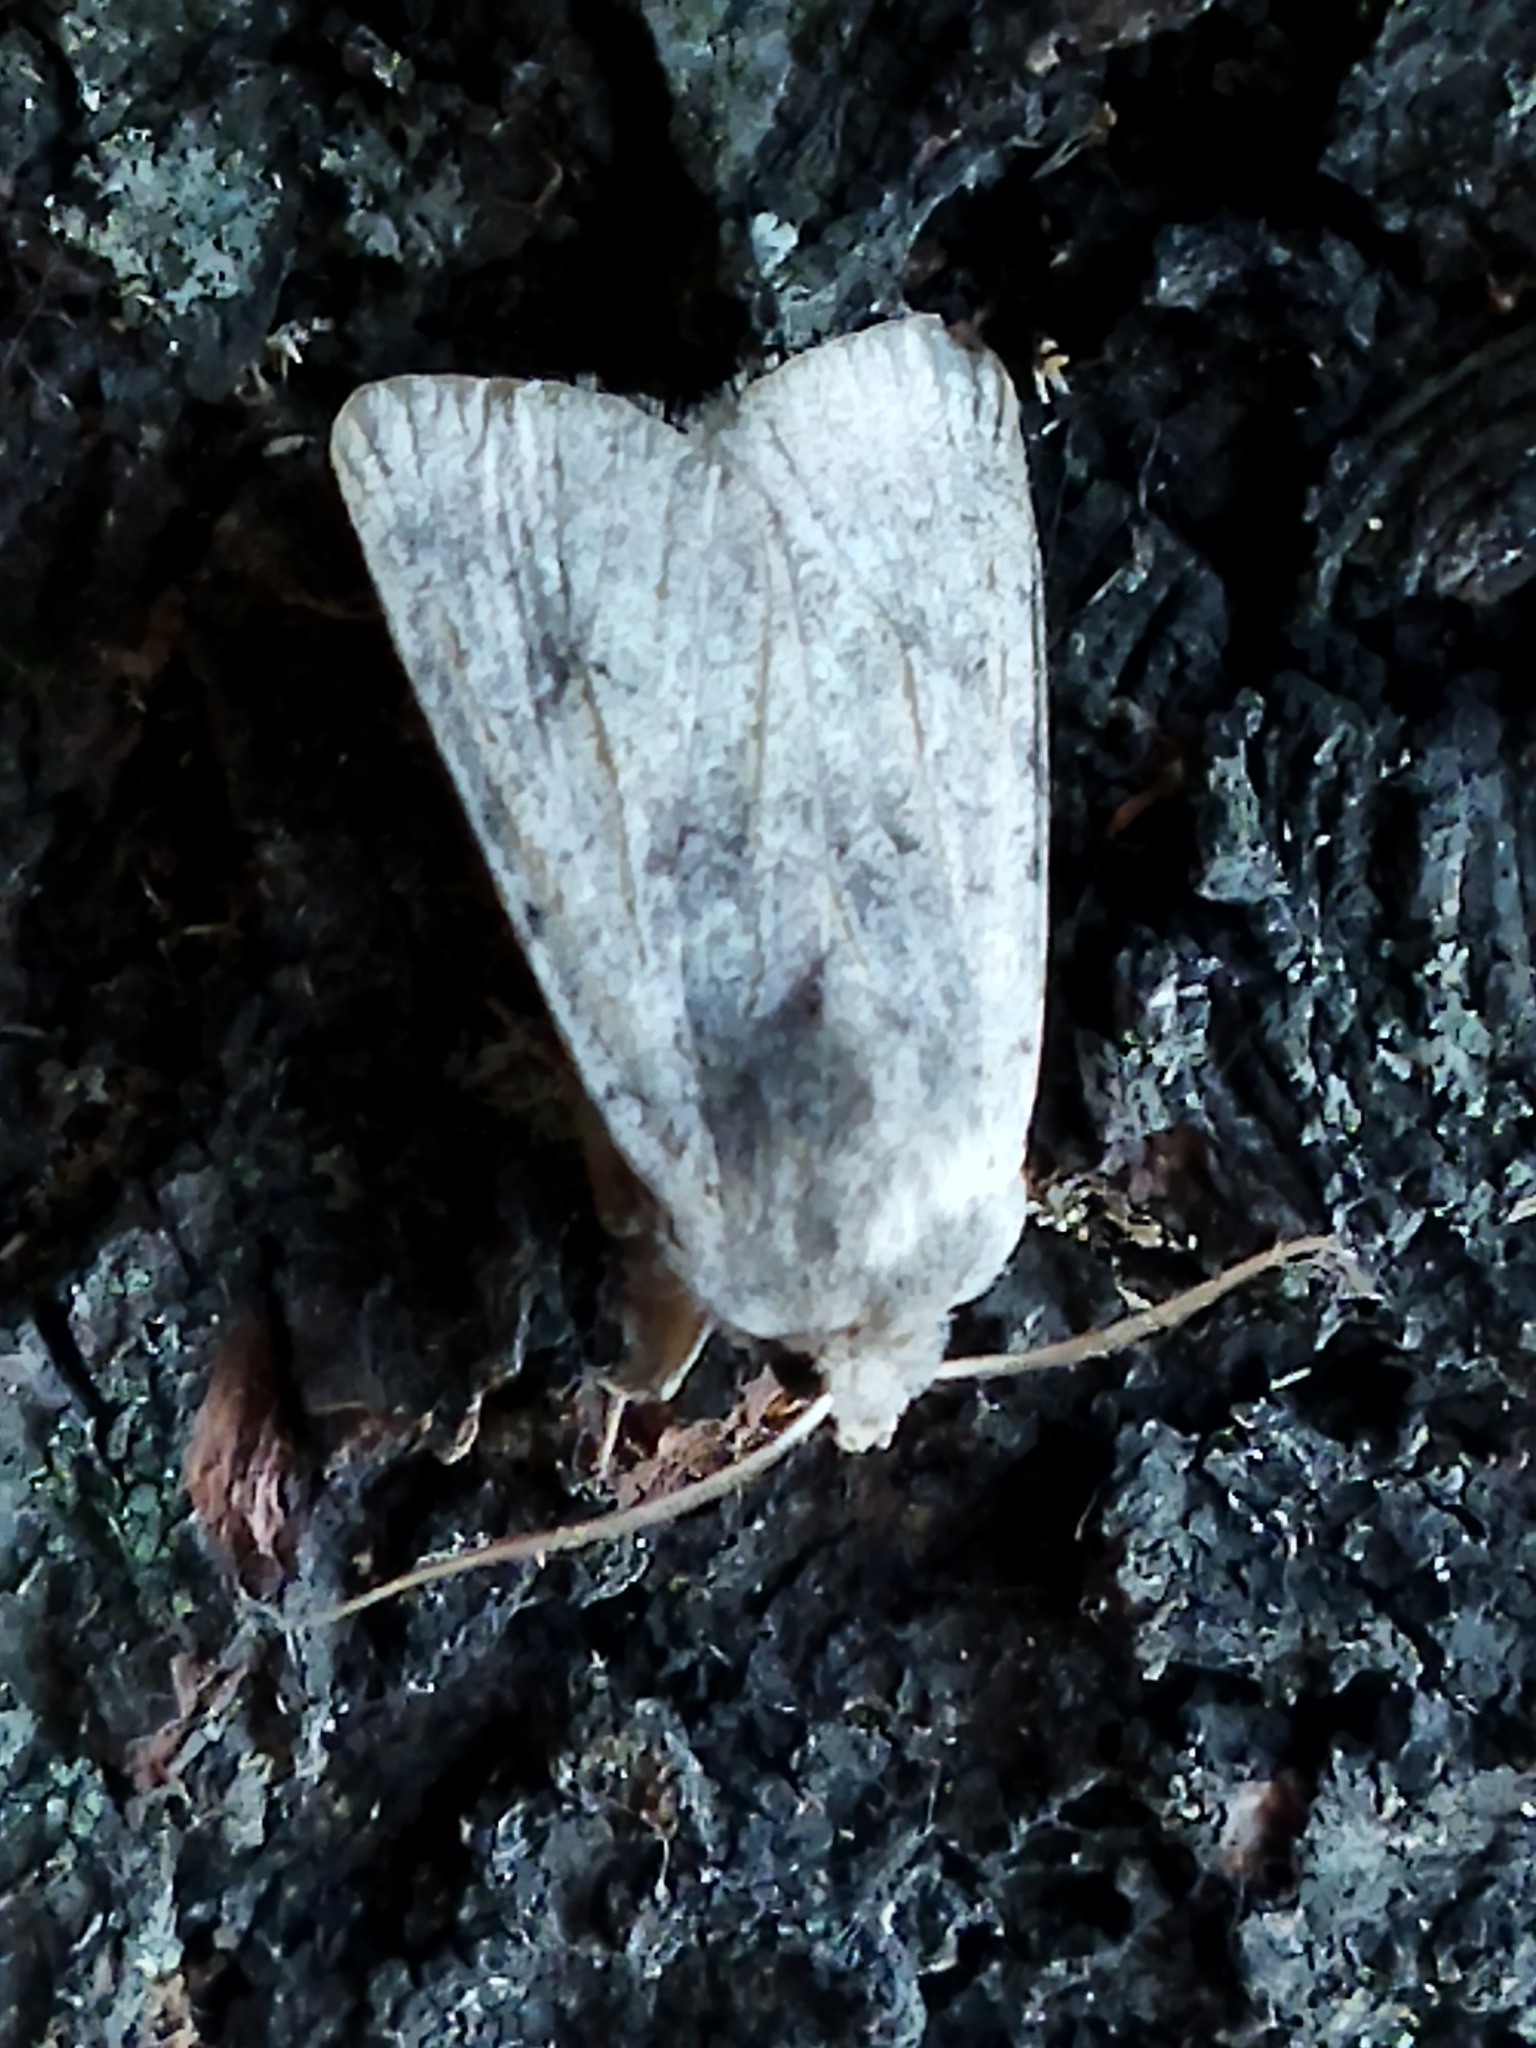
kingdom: Animalia
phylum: Arthropoda
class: Insecta
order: Lepidoptera
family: Noctuidae
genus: Cerastis
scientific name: Cerastis rubricosa
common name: Red chestnut
